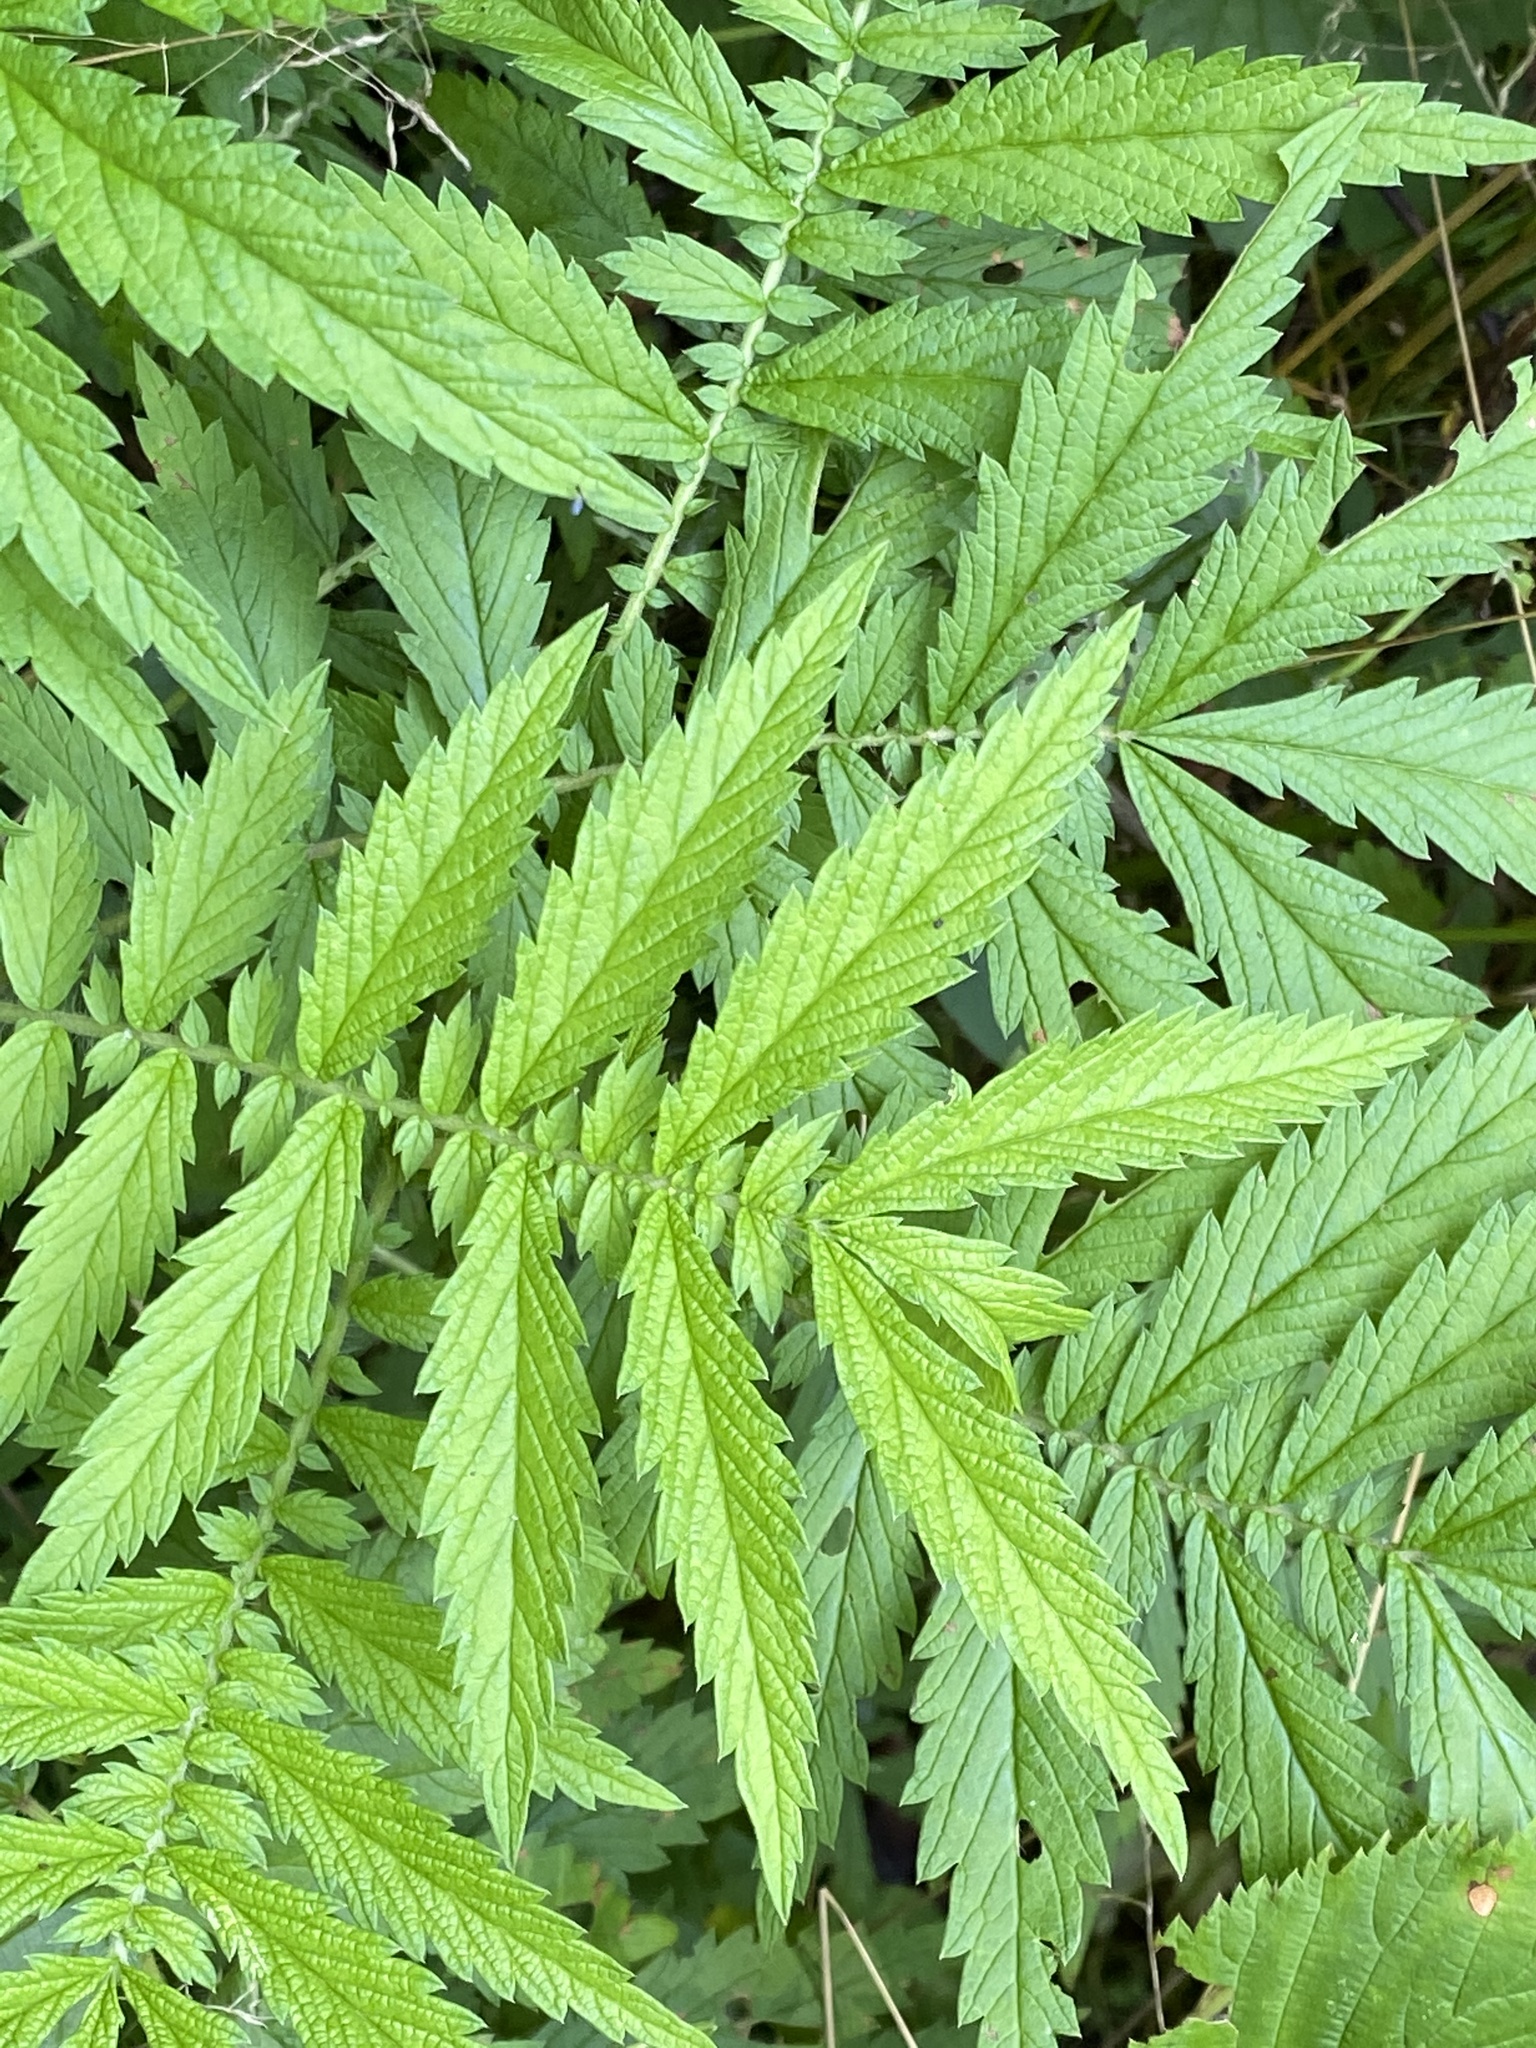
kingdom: Plantae
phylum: Tracheophyta
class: Magnoliopsida
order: Rosales
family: Rosaceae
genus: Agrimonia
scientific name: Agrimonia parviflora
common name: Harvest-lice
